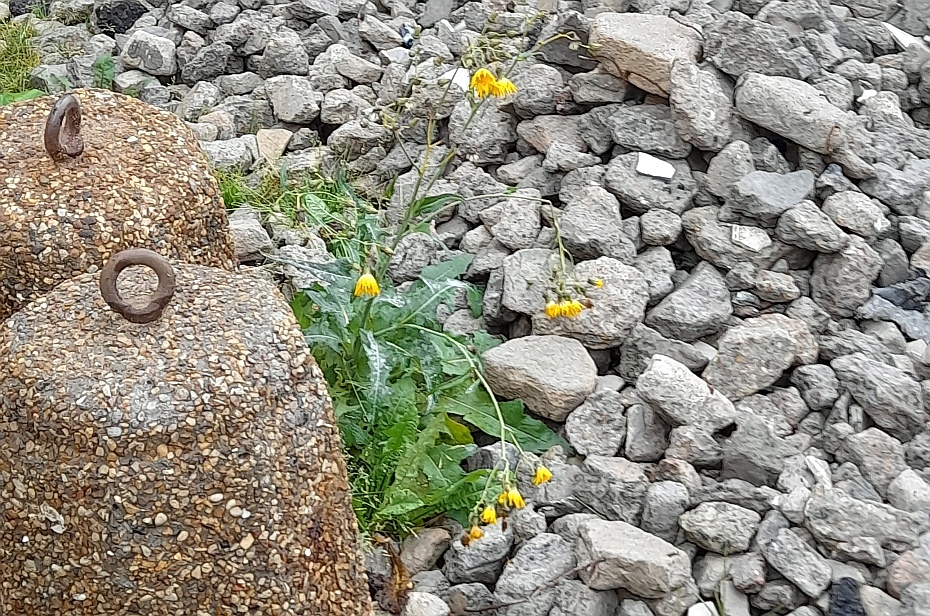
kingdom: Plantae
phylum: Tracheophyta
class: Magnoliopsida
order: Asterales
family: Asteraceae
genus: Sonchus
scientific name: Sonchus arvensis
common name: Perennial sow-thistle
